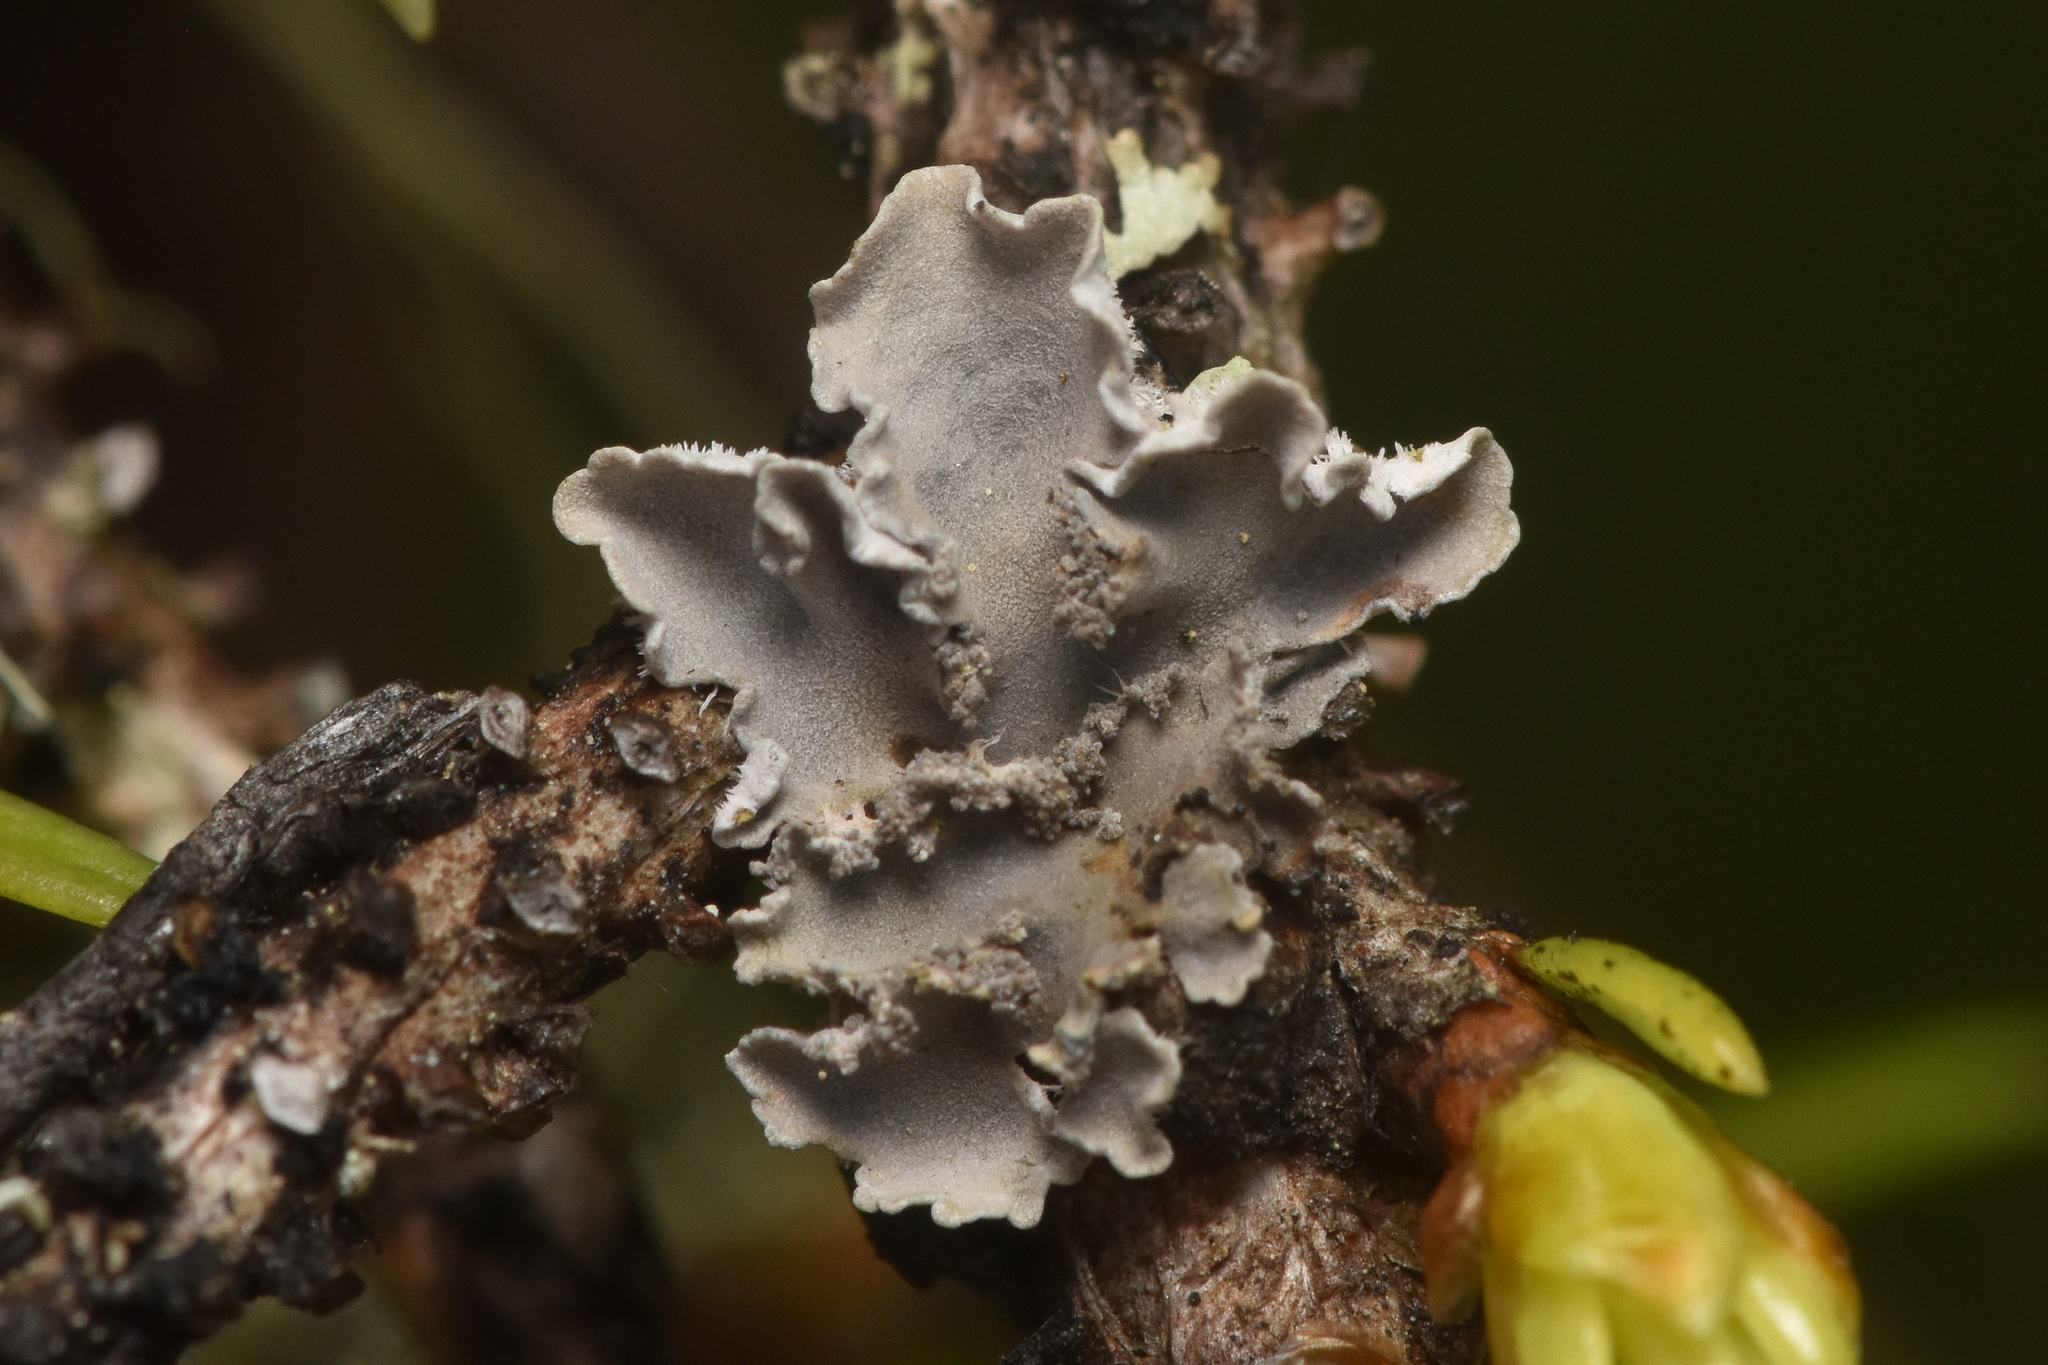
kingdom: Fungi
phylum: Ascomycota
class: Lecanoromycetes
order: Peltigerales
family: Pannariaceae
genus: Leioderma
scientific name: Leioderma sorediatum
